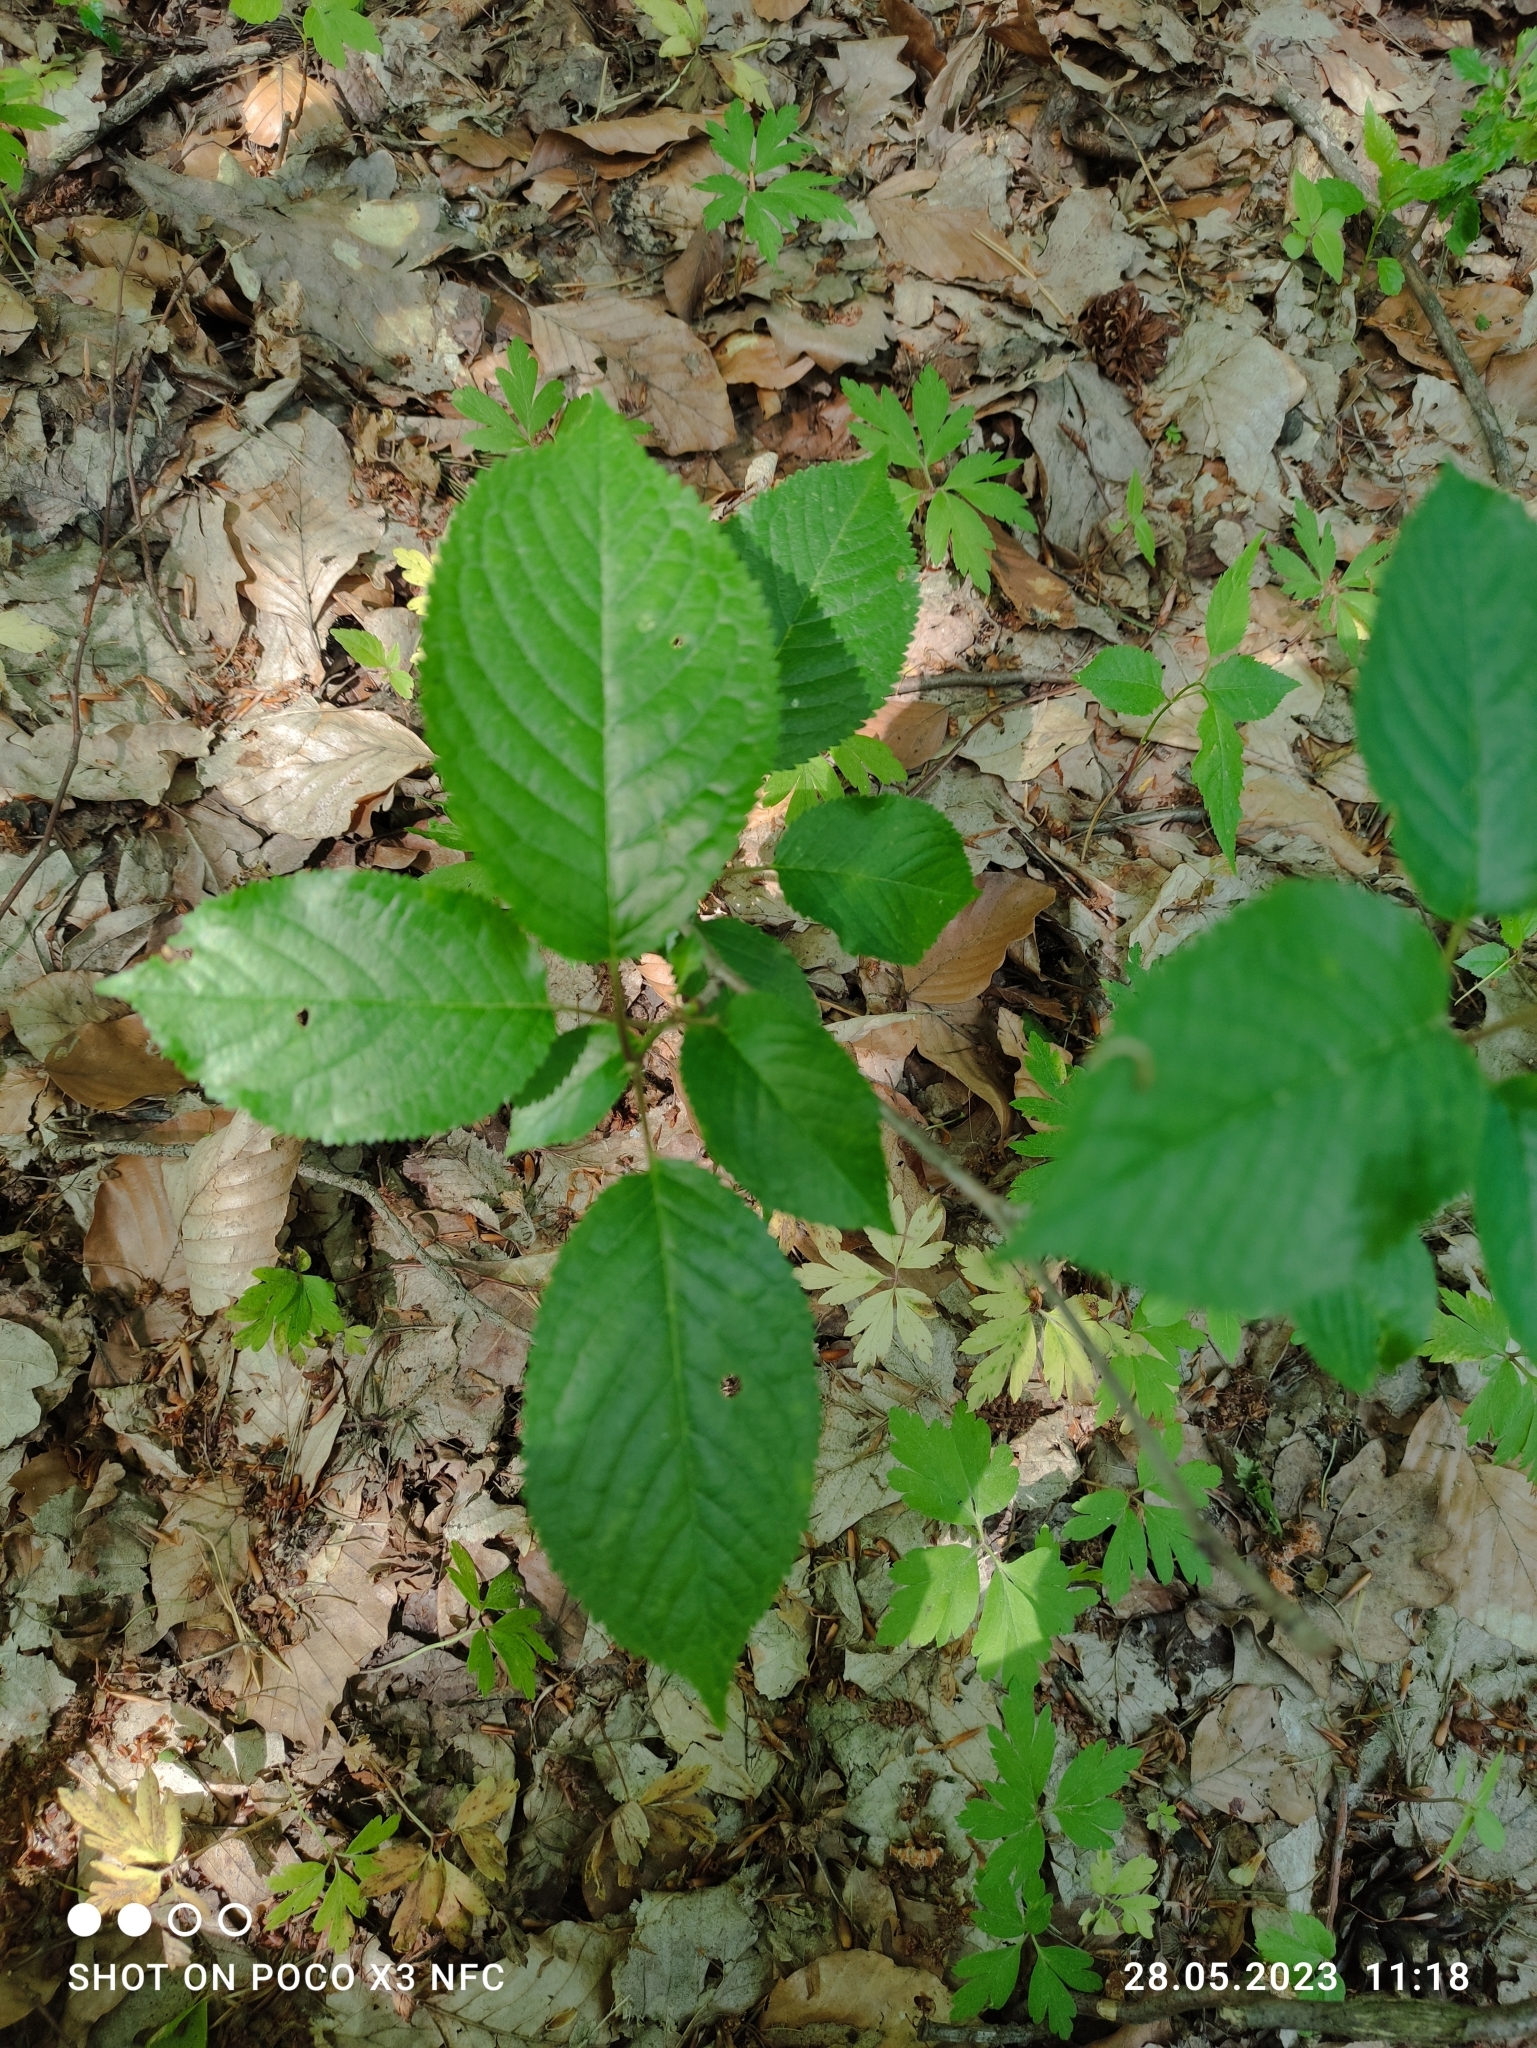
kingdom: Plantae
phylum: Tracheophyta
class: Magnoliopsida
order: Rosales
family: Rosaceae
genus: Prunus
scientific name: Prunus avium
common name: Sweet cherry
